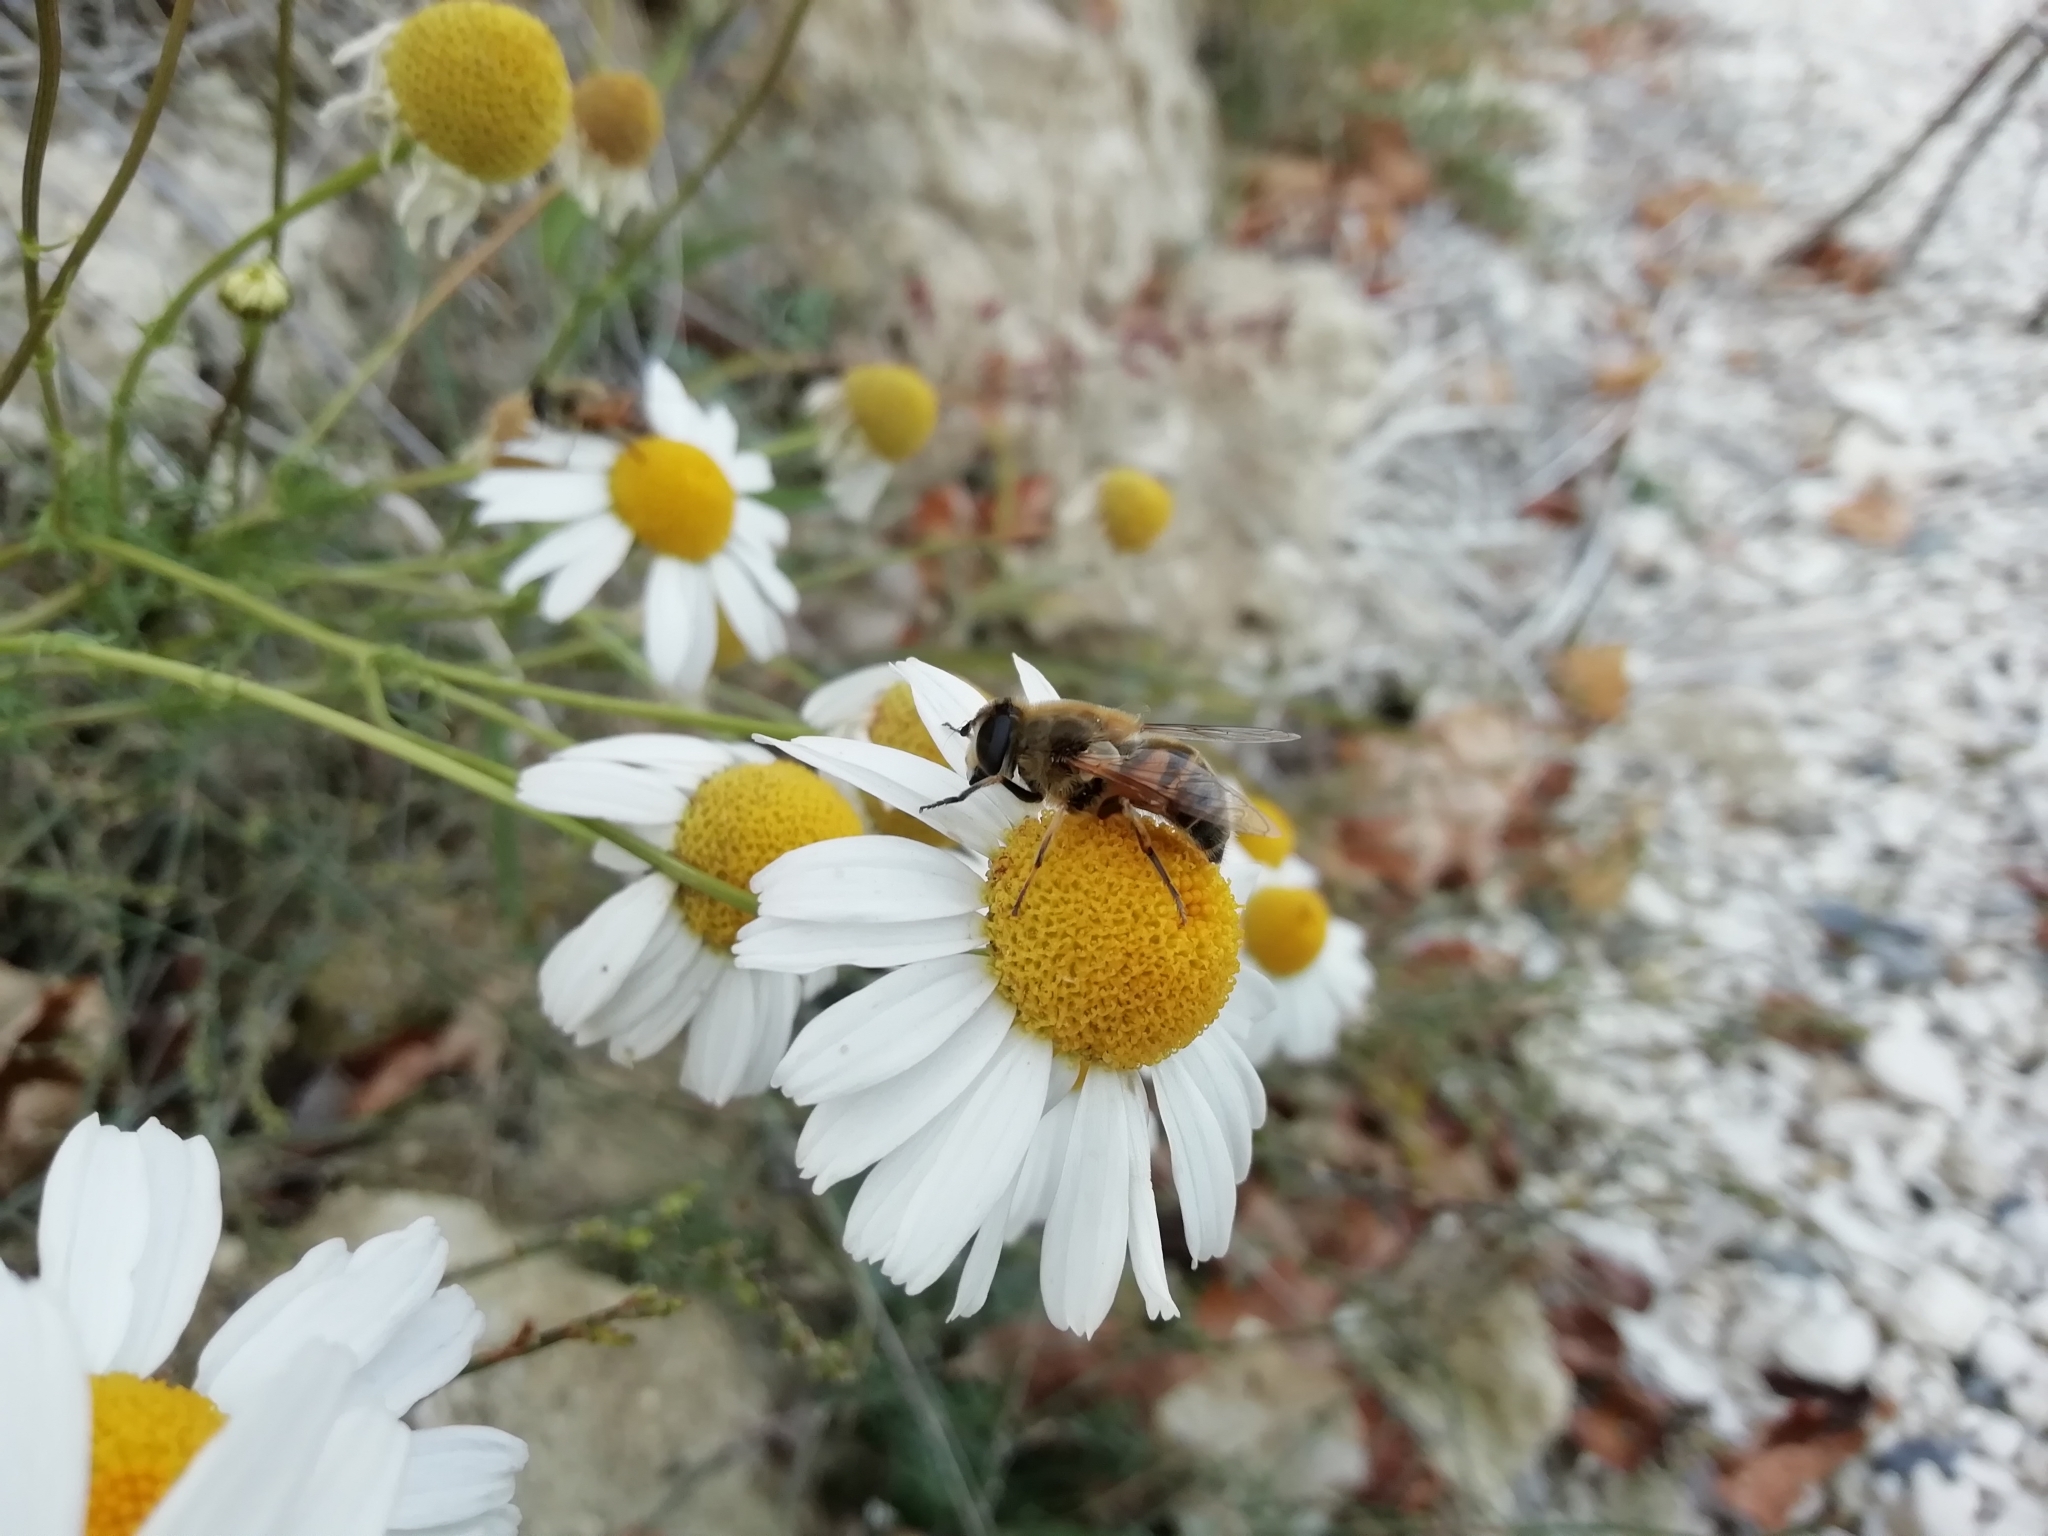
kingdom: Animalia
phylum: Arthropoda
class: Insecta
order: Diptera
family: Syrphidae
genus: Eristalis
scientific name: Eristalis tenax
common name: Drone fly
